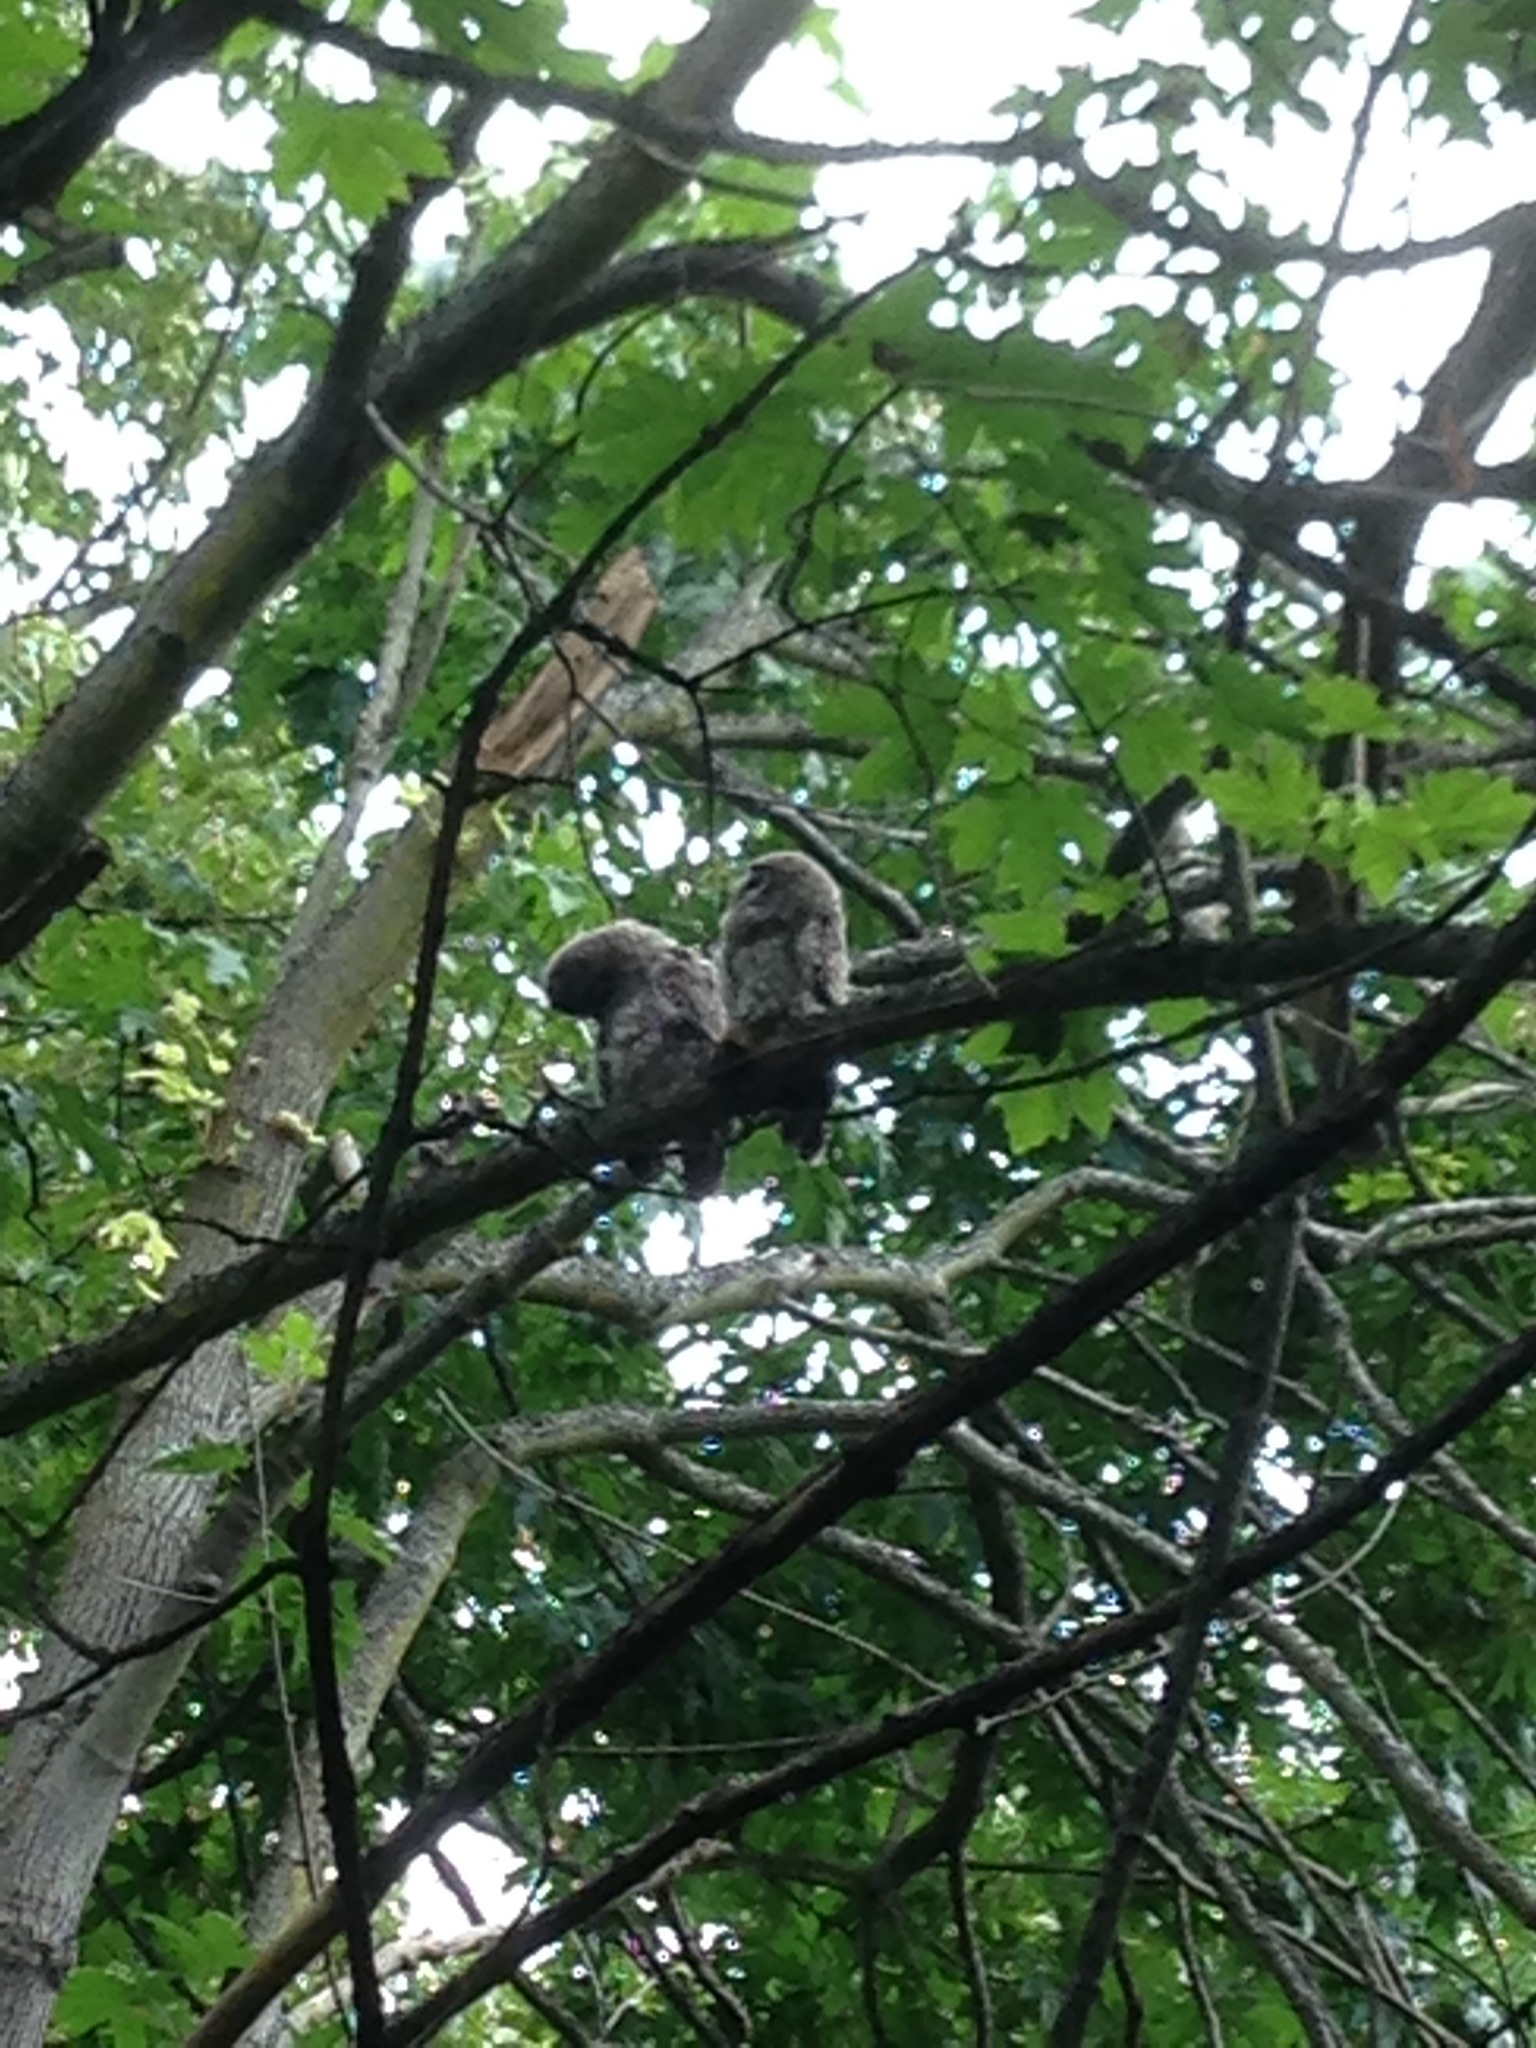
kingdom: Animalia
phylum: Chordata
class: Aves
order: Strigiformes
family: Strigidae
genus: Strix
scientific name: Strix varia
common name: Barred owl
